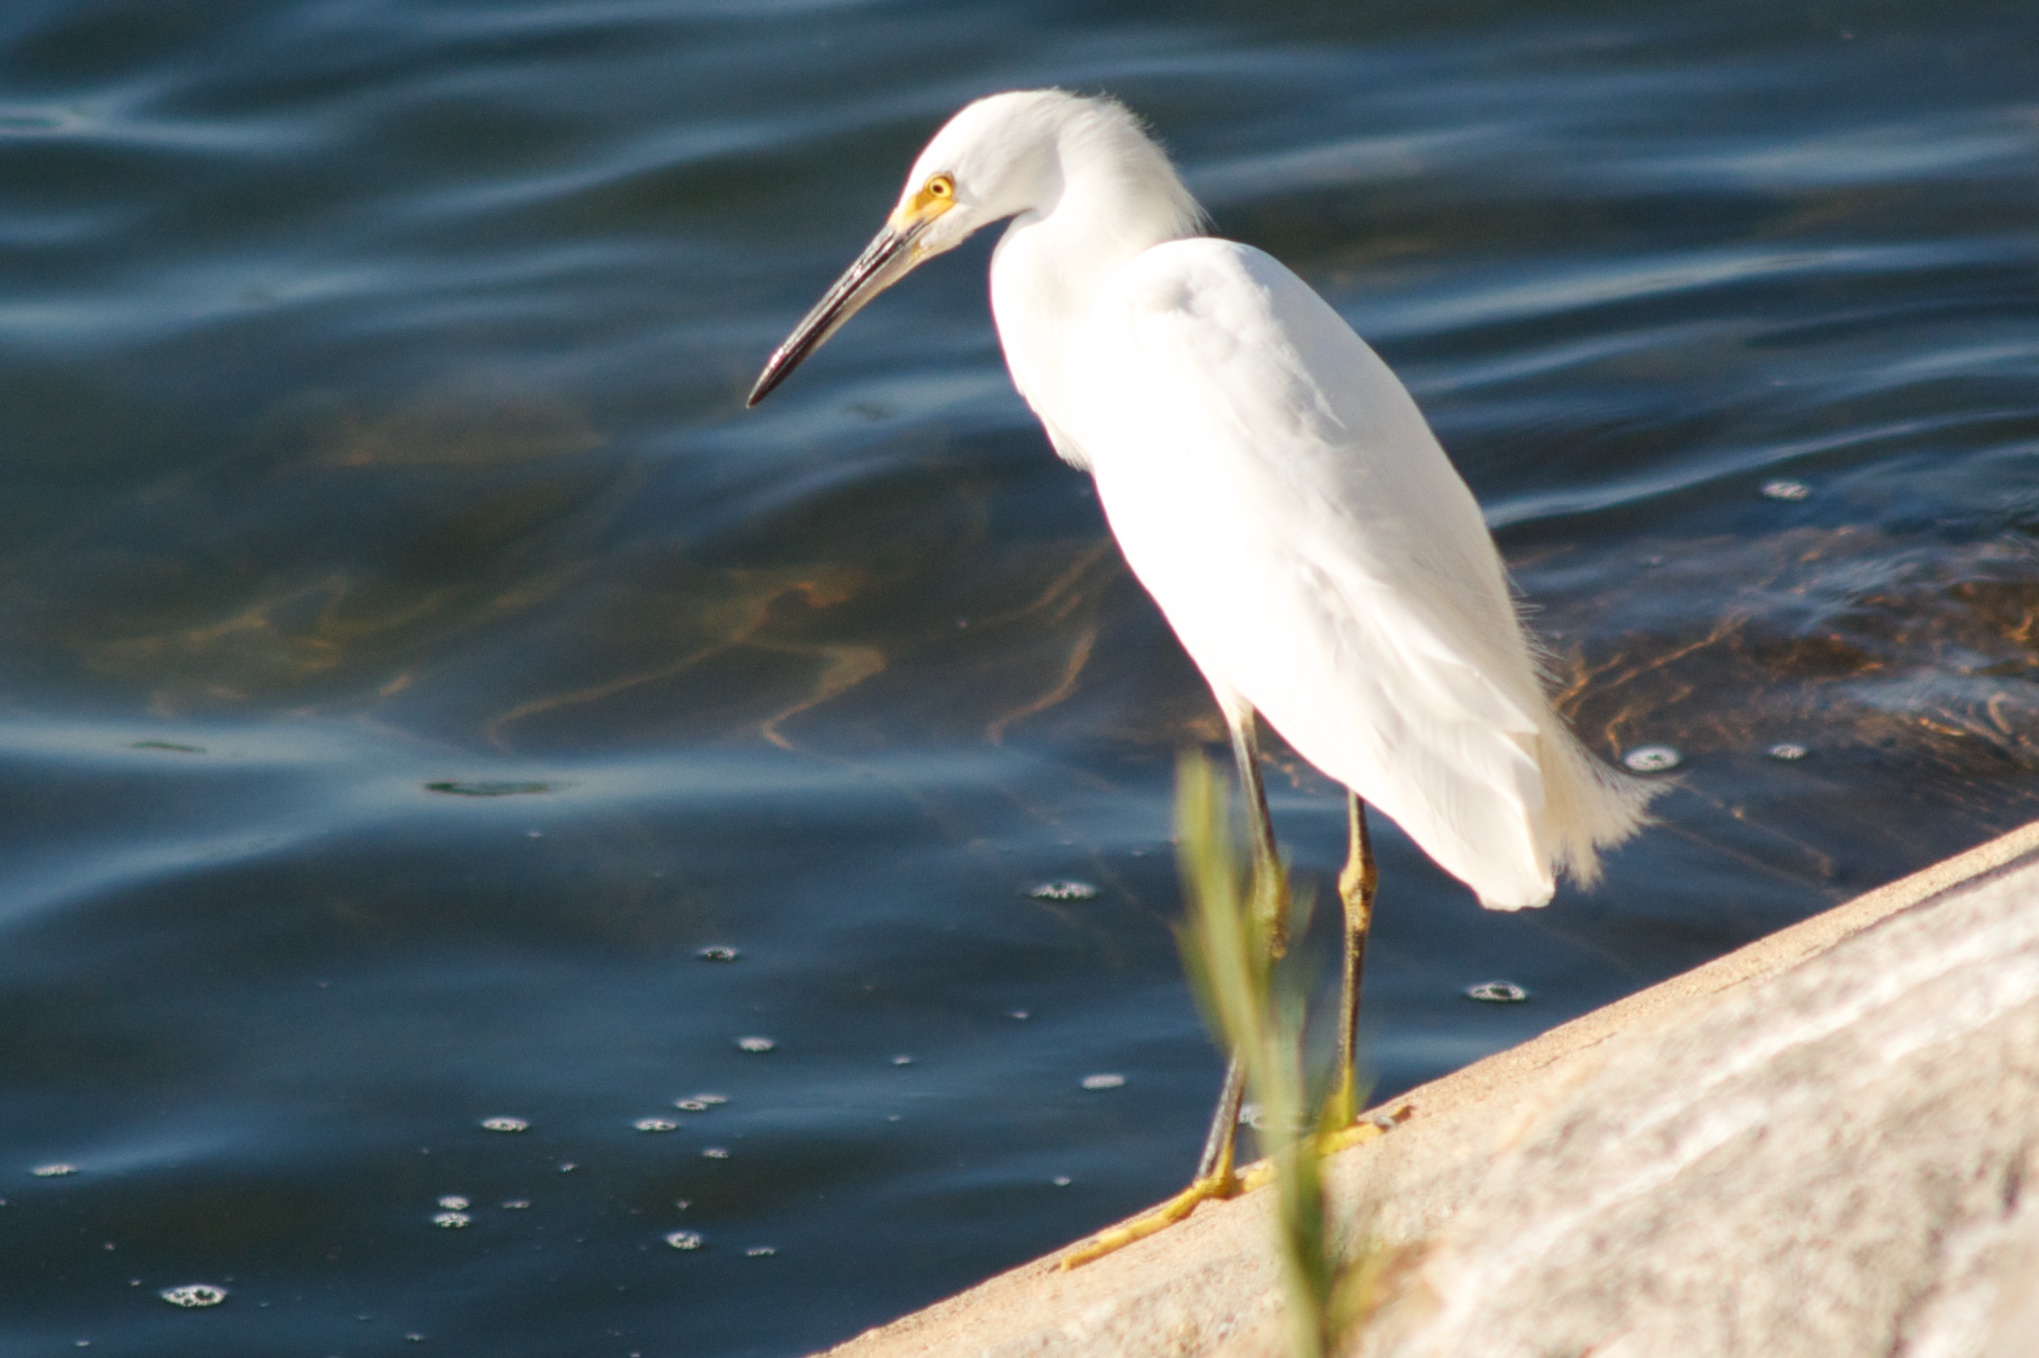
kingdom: Animalia
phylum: Chordata
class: Aves
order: Pelecaniformes
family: Ardeidae
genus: Egretta
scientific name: Egretta thula
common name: Snowy egret
